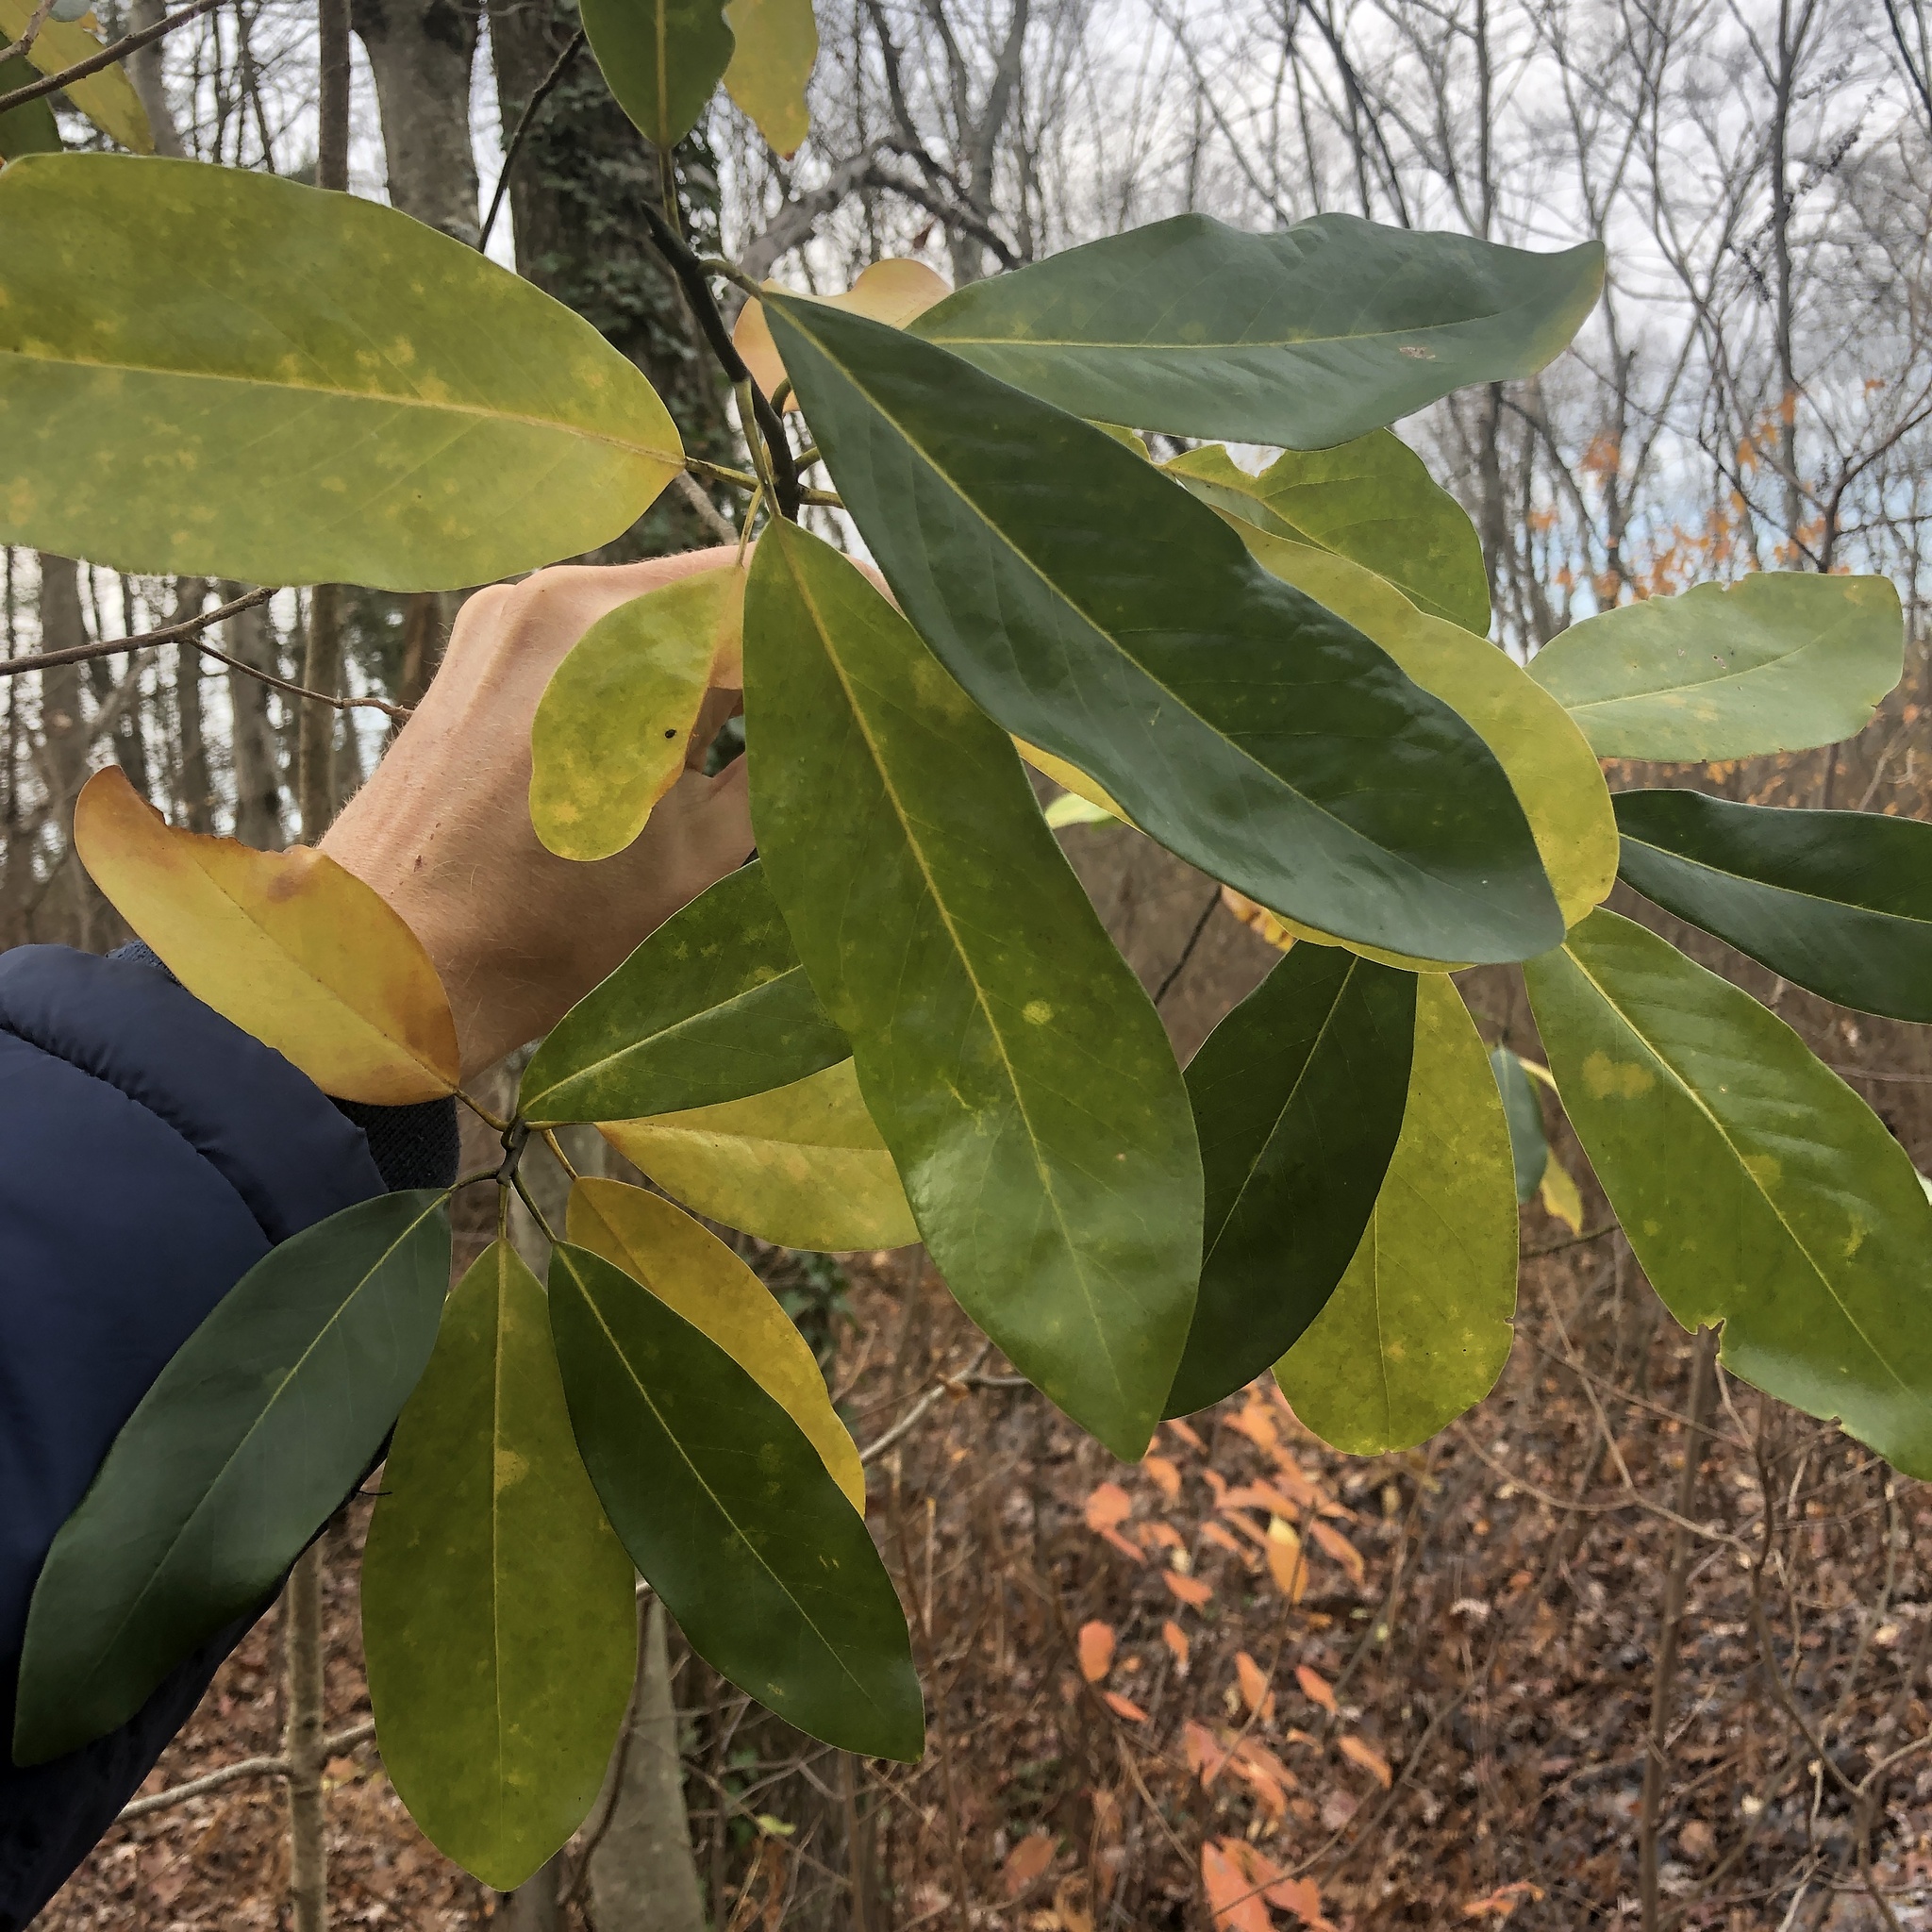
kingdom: Plantae
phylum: Tracheophyta
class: Magnoliopsida
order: Magnoliales
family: Magnoliaceae
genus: Magnolia
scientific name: Magnolia virginiana
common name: Swamp bay
